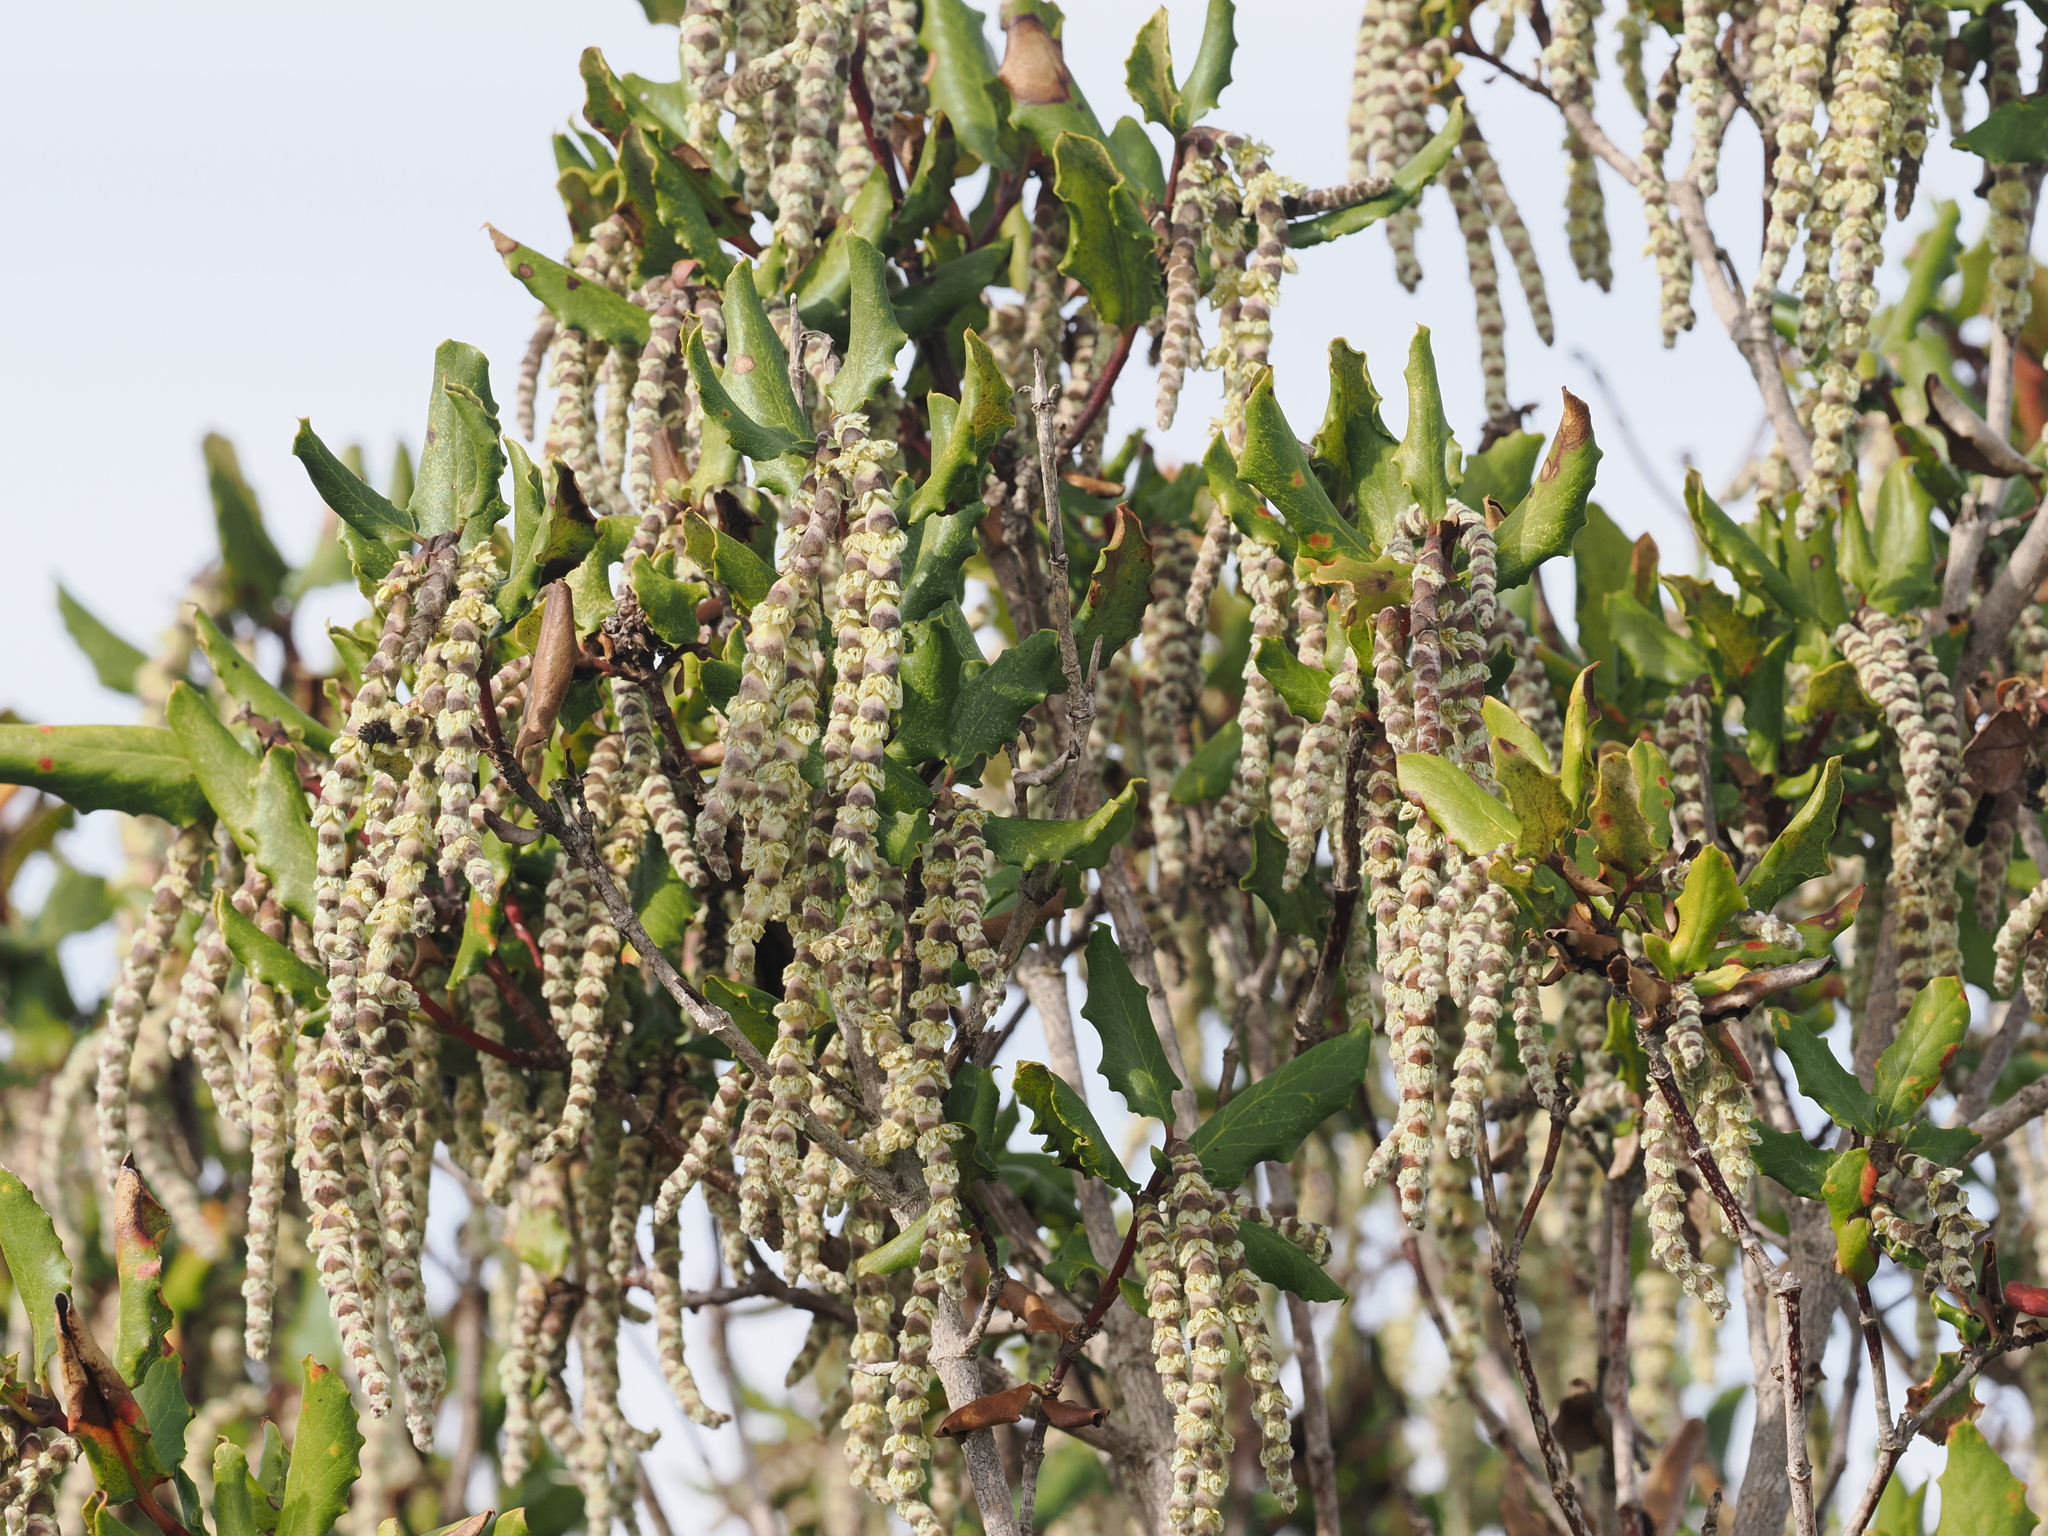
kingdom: Plantae
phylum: Tracheophyta
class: Magnoliopsida
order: Garryales
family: Garryaceae
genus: Garrya
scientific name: Garrya elliptica
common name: Silk-tassel
